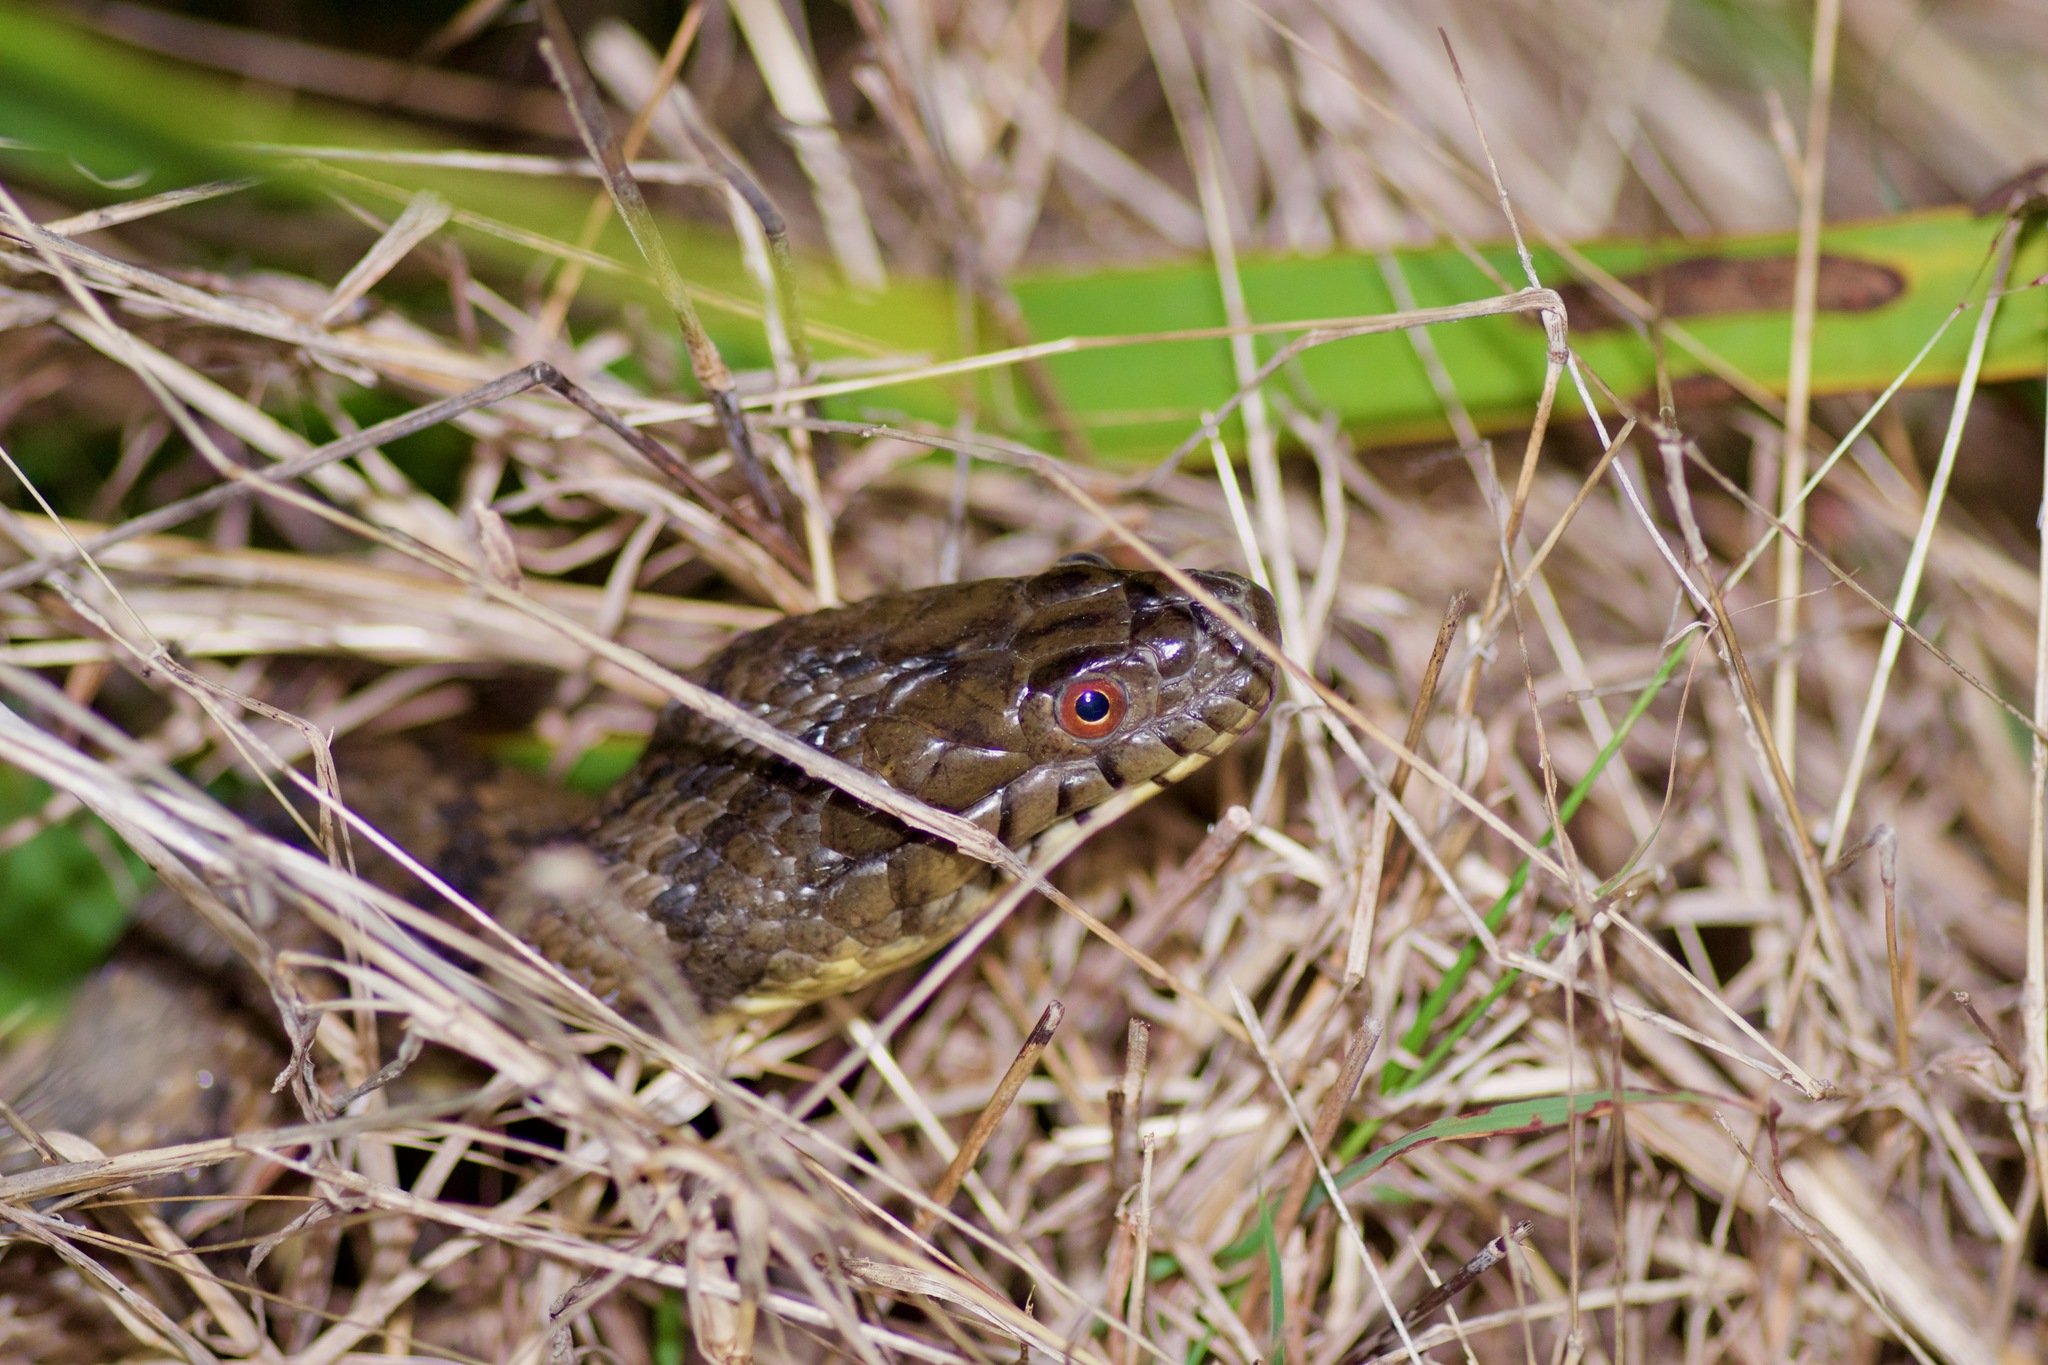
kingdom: Animalia
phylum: Chordata
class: Squamata
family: Colubridae
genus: Nerodia
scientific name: Nerodia rhombifer
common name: Diamondback water snake
